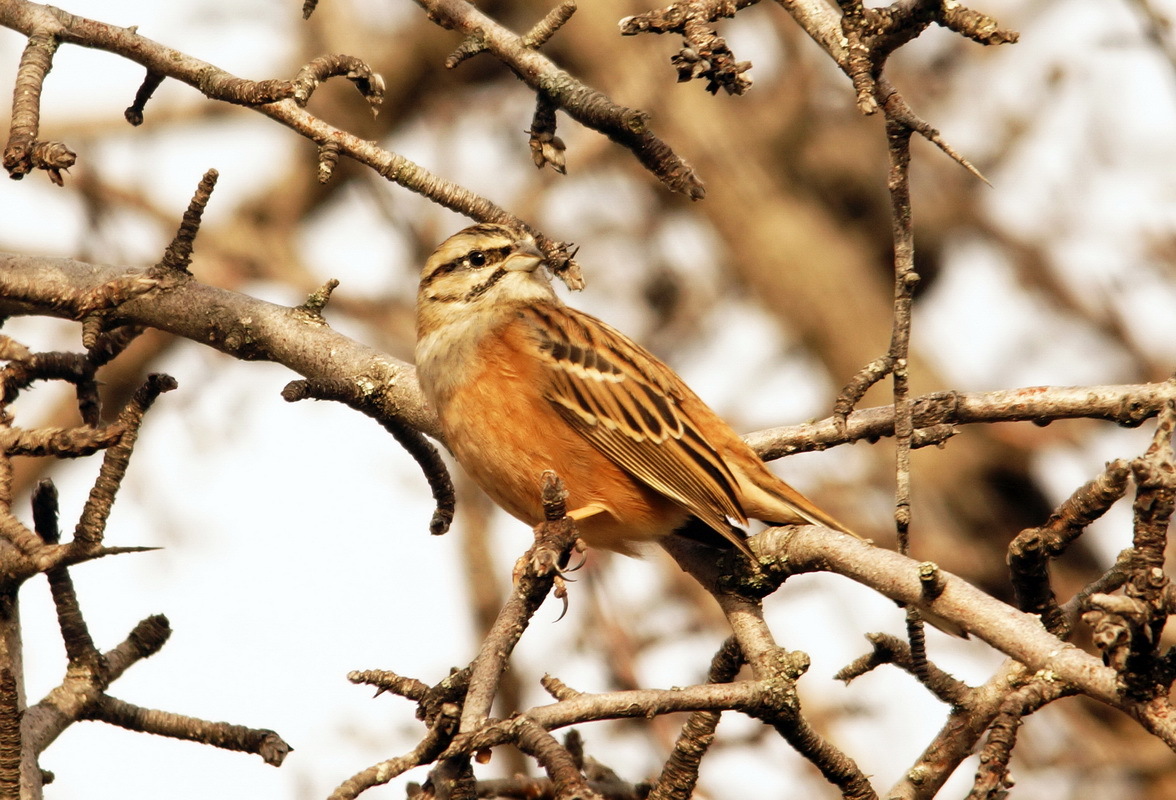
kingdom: Animalia
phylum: Chordata
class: Aves
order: Passeriformes
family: Emberizidae
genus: Emberiza
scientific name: Emberiza cia
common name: Rock bunting
